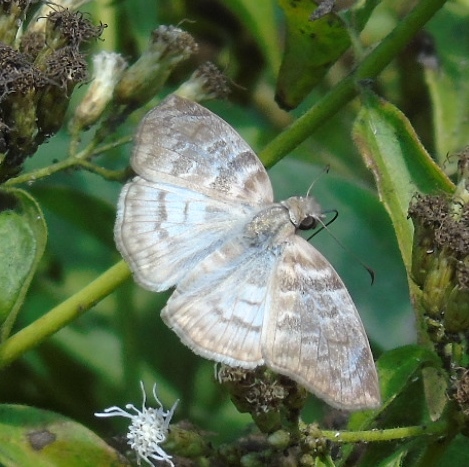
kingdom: Animalia
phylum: Arthropoda
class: Insecta
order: Lepidoptera
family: Hesperiidae
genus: Mylon
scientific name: Mylon pelopidas
